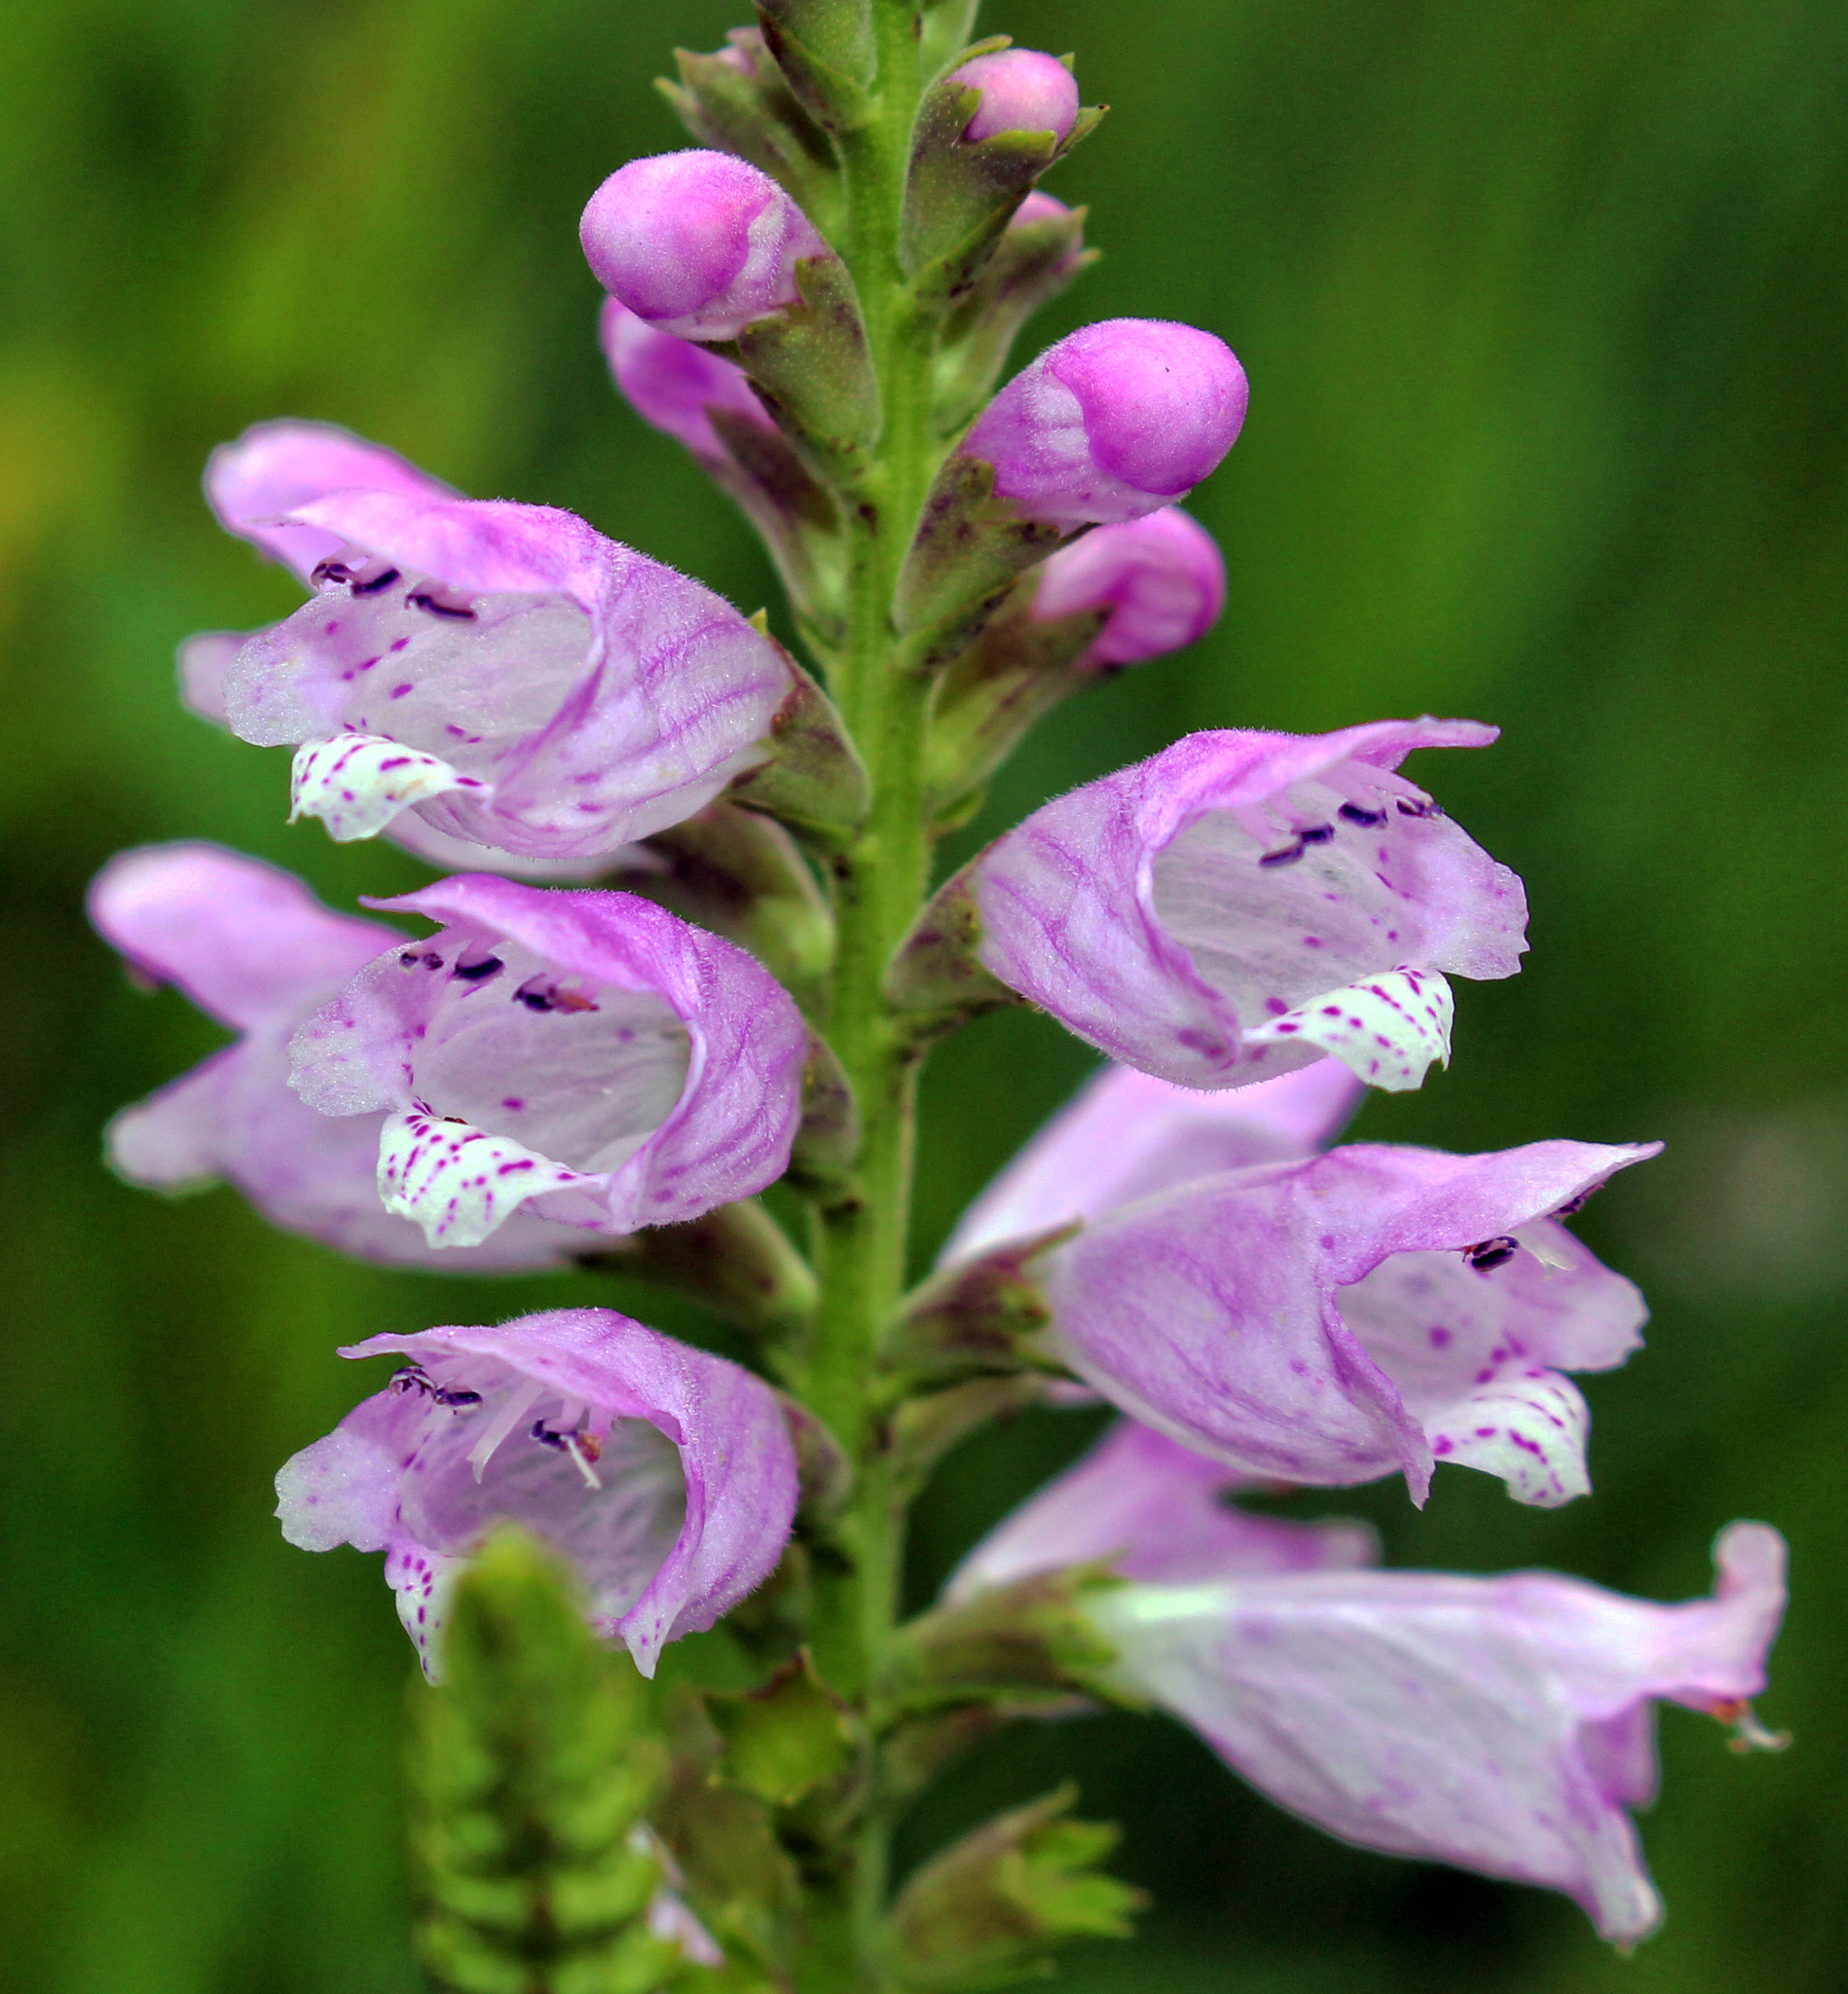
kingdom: Plantae
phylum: Tracheophyta
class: Magnoliopsida
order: Lamiales
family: Lamiaceae
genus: Physostegia
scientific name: Physostegia virginiana
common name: Obedient-plant
